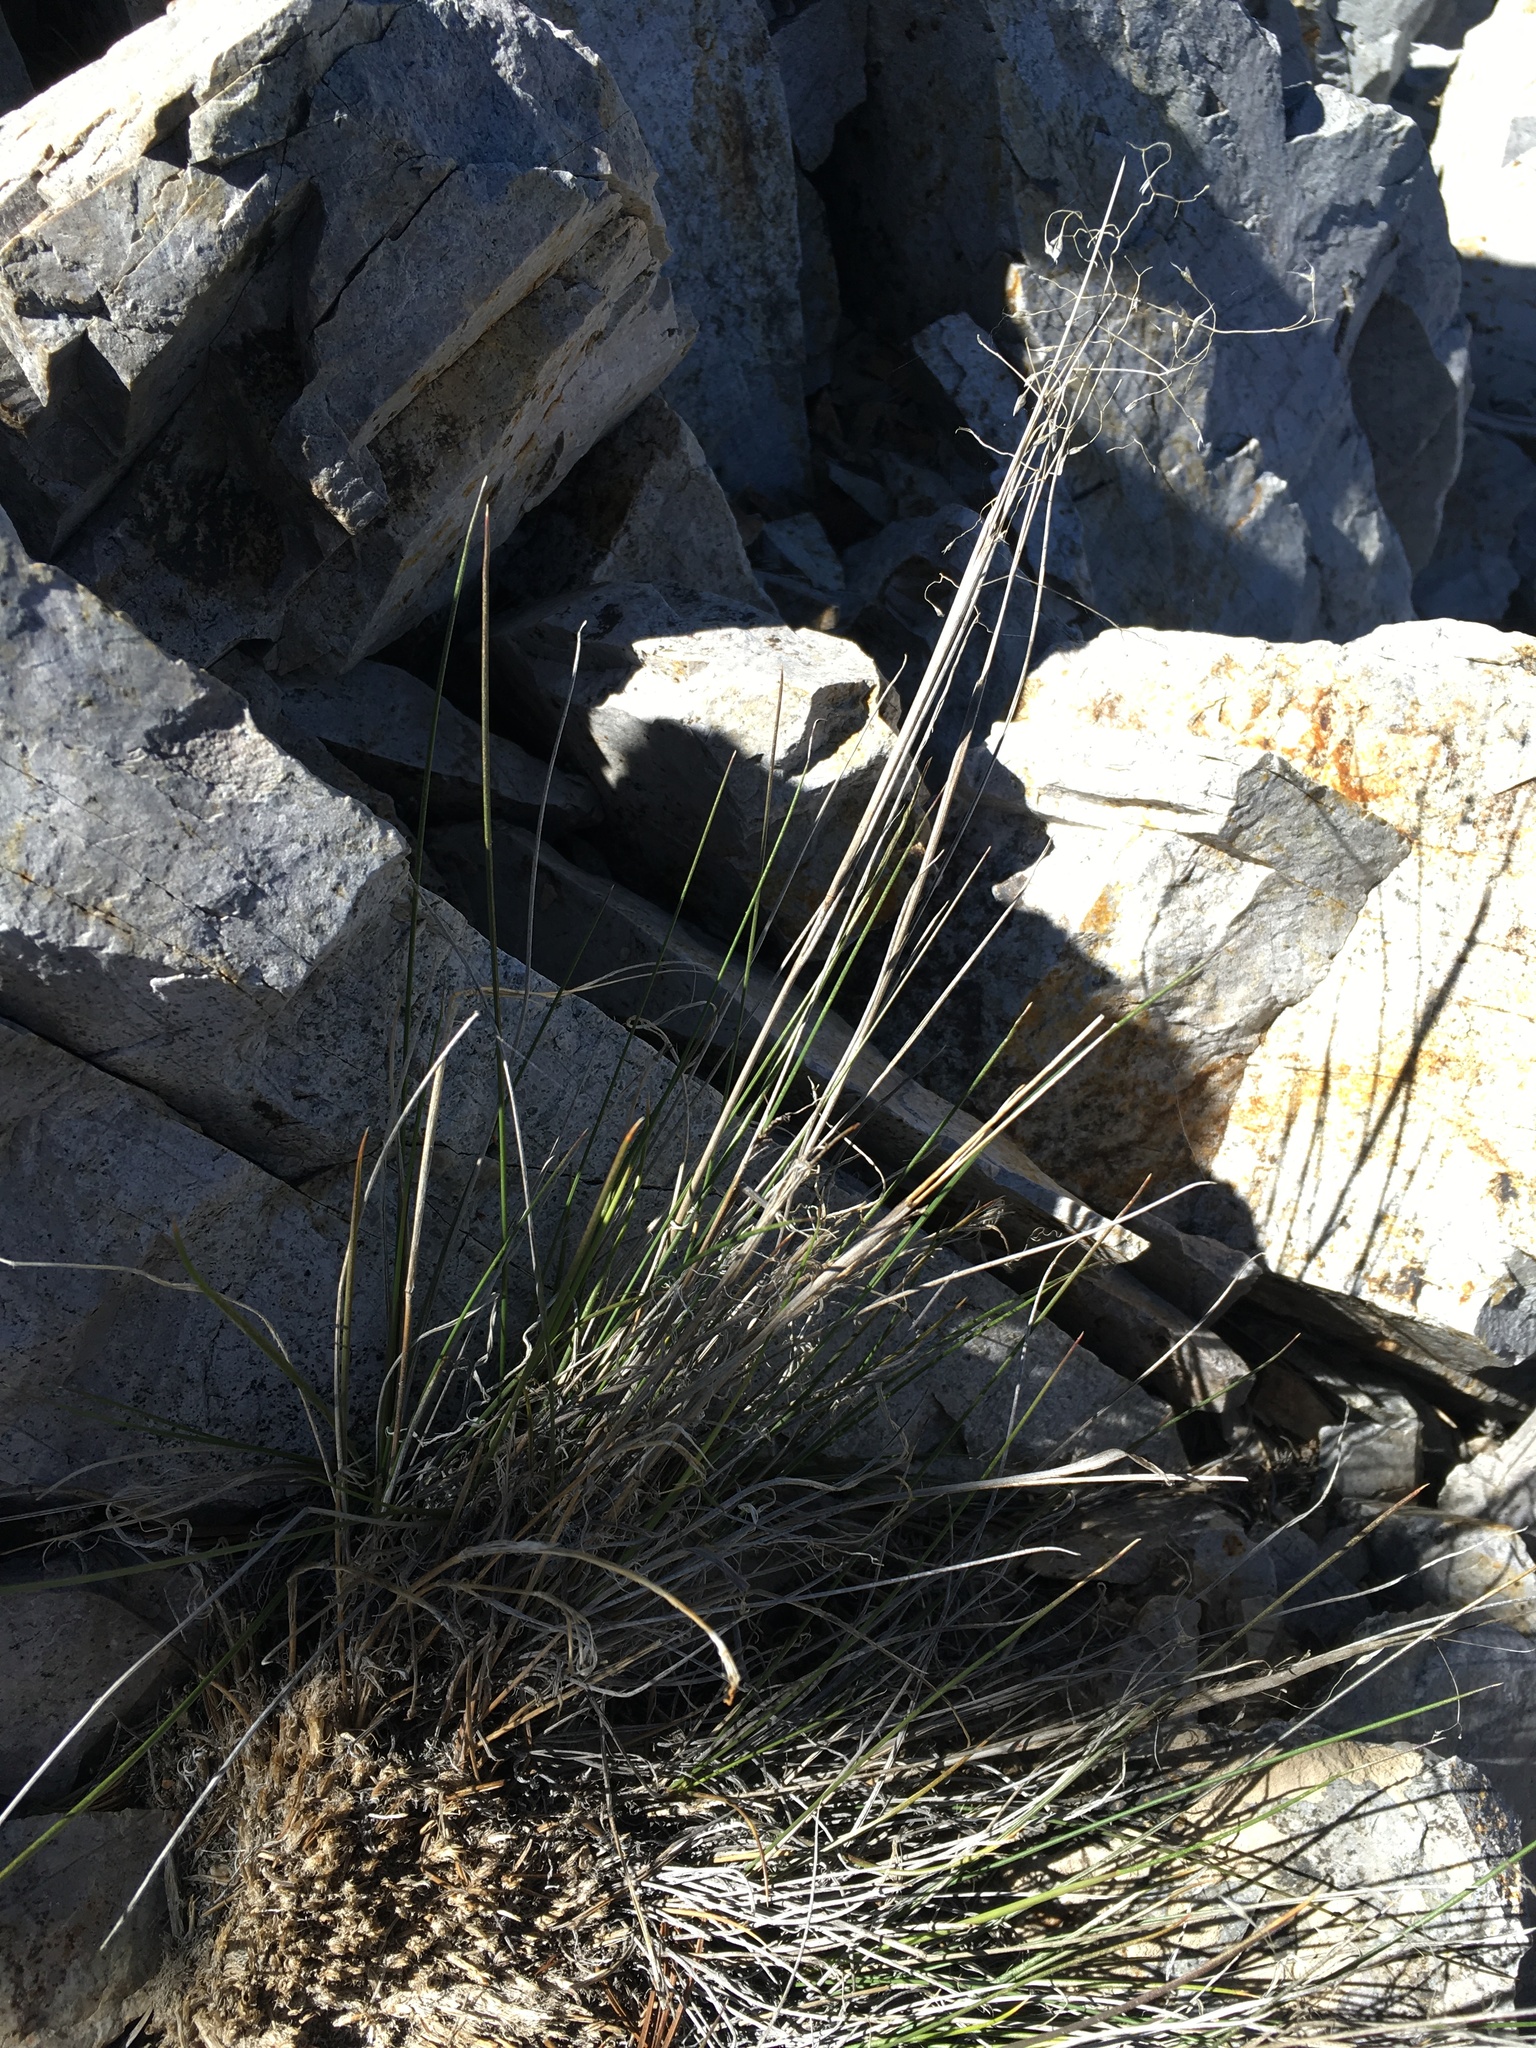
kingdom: Plantae
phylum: Tracheophyta
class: Liliopsida
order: Poales
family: Poaceae
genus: Eriocoma
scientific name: Eriocoma hymenoides
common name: Indian mountain ricegrass
